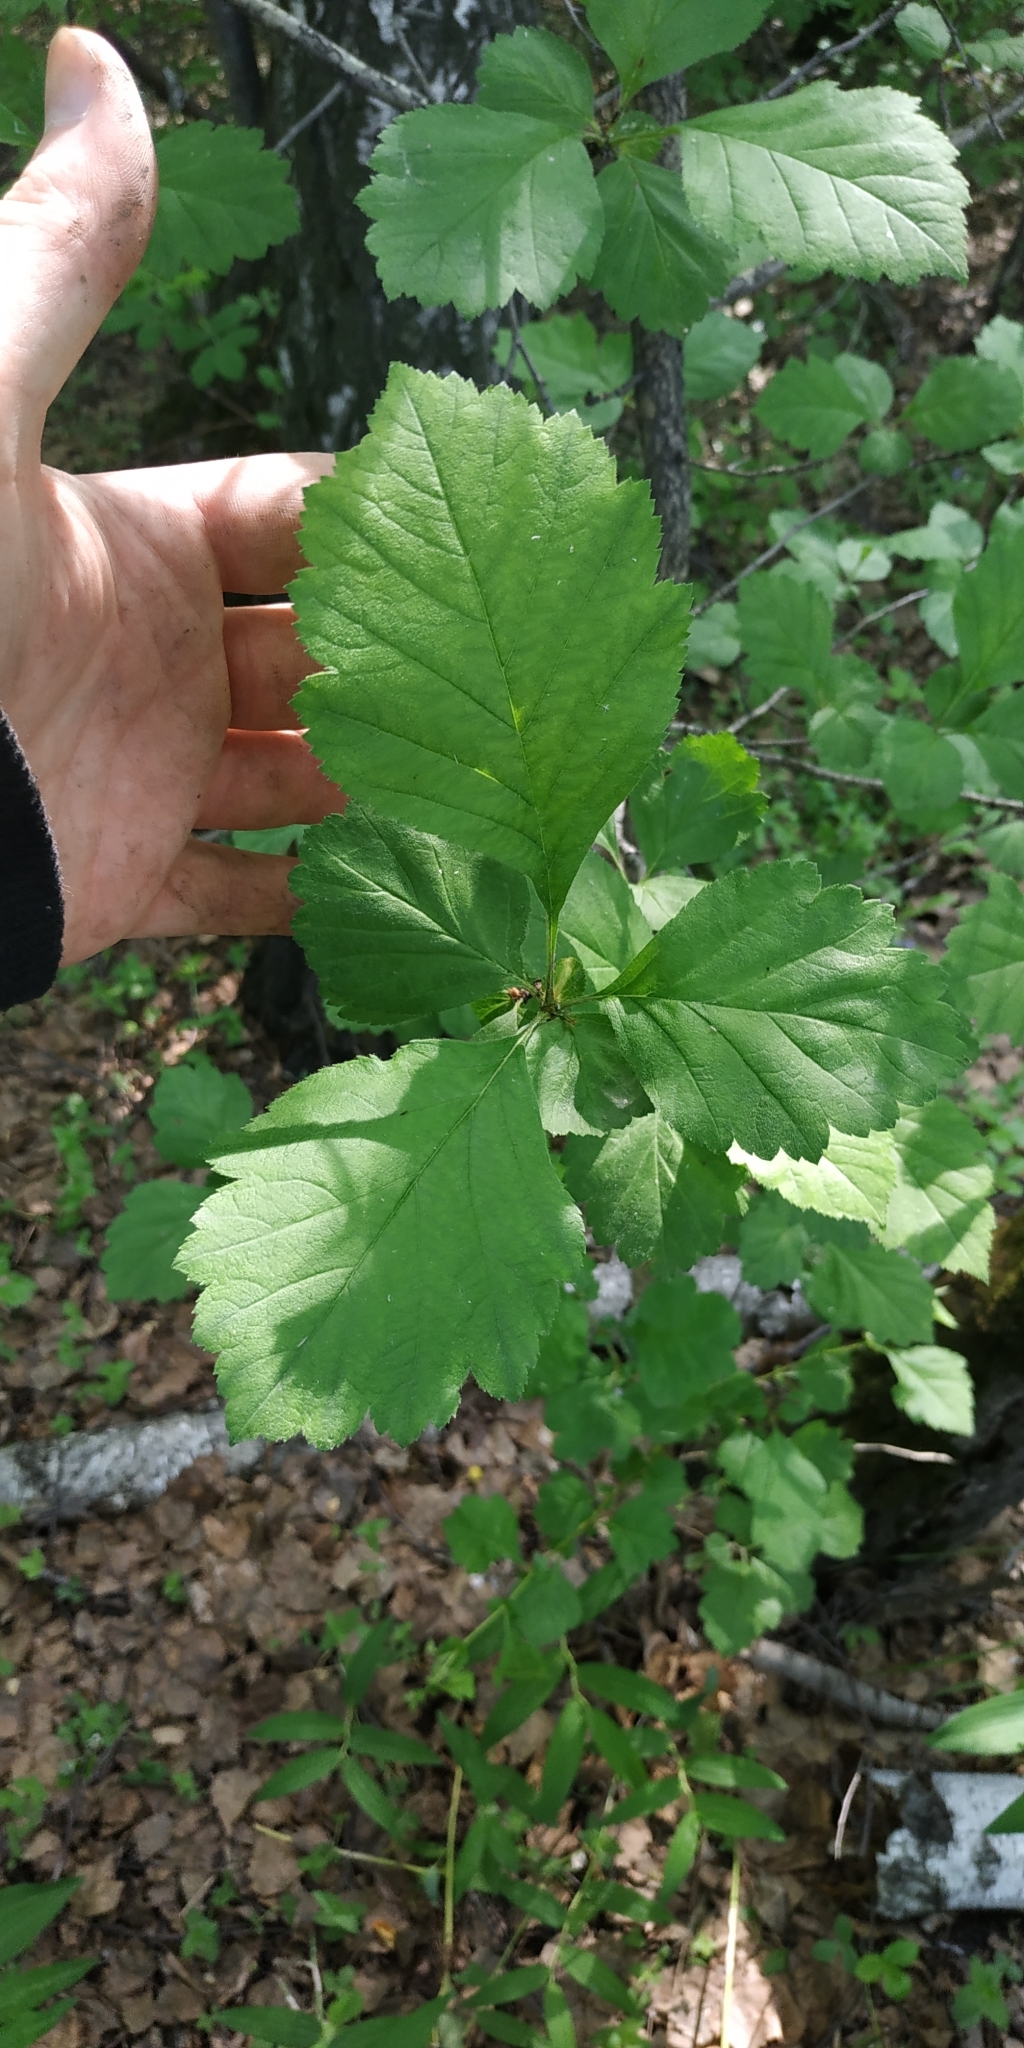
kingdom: Plantae
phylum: Tracheophyta
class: Magnoliopsida
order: Rosales
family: Rosaceae
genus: Crataegus
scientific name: Crataegus sanguinea
